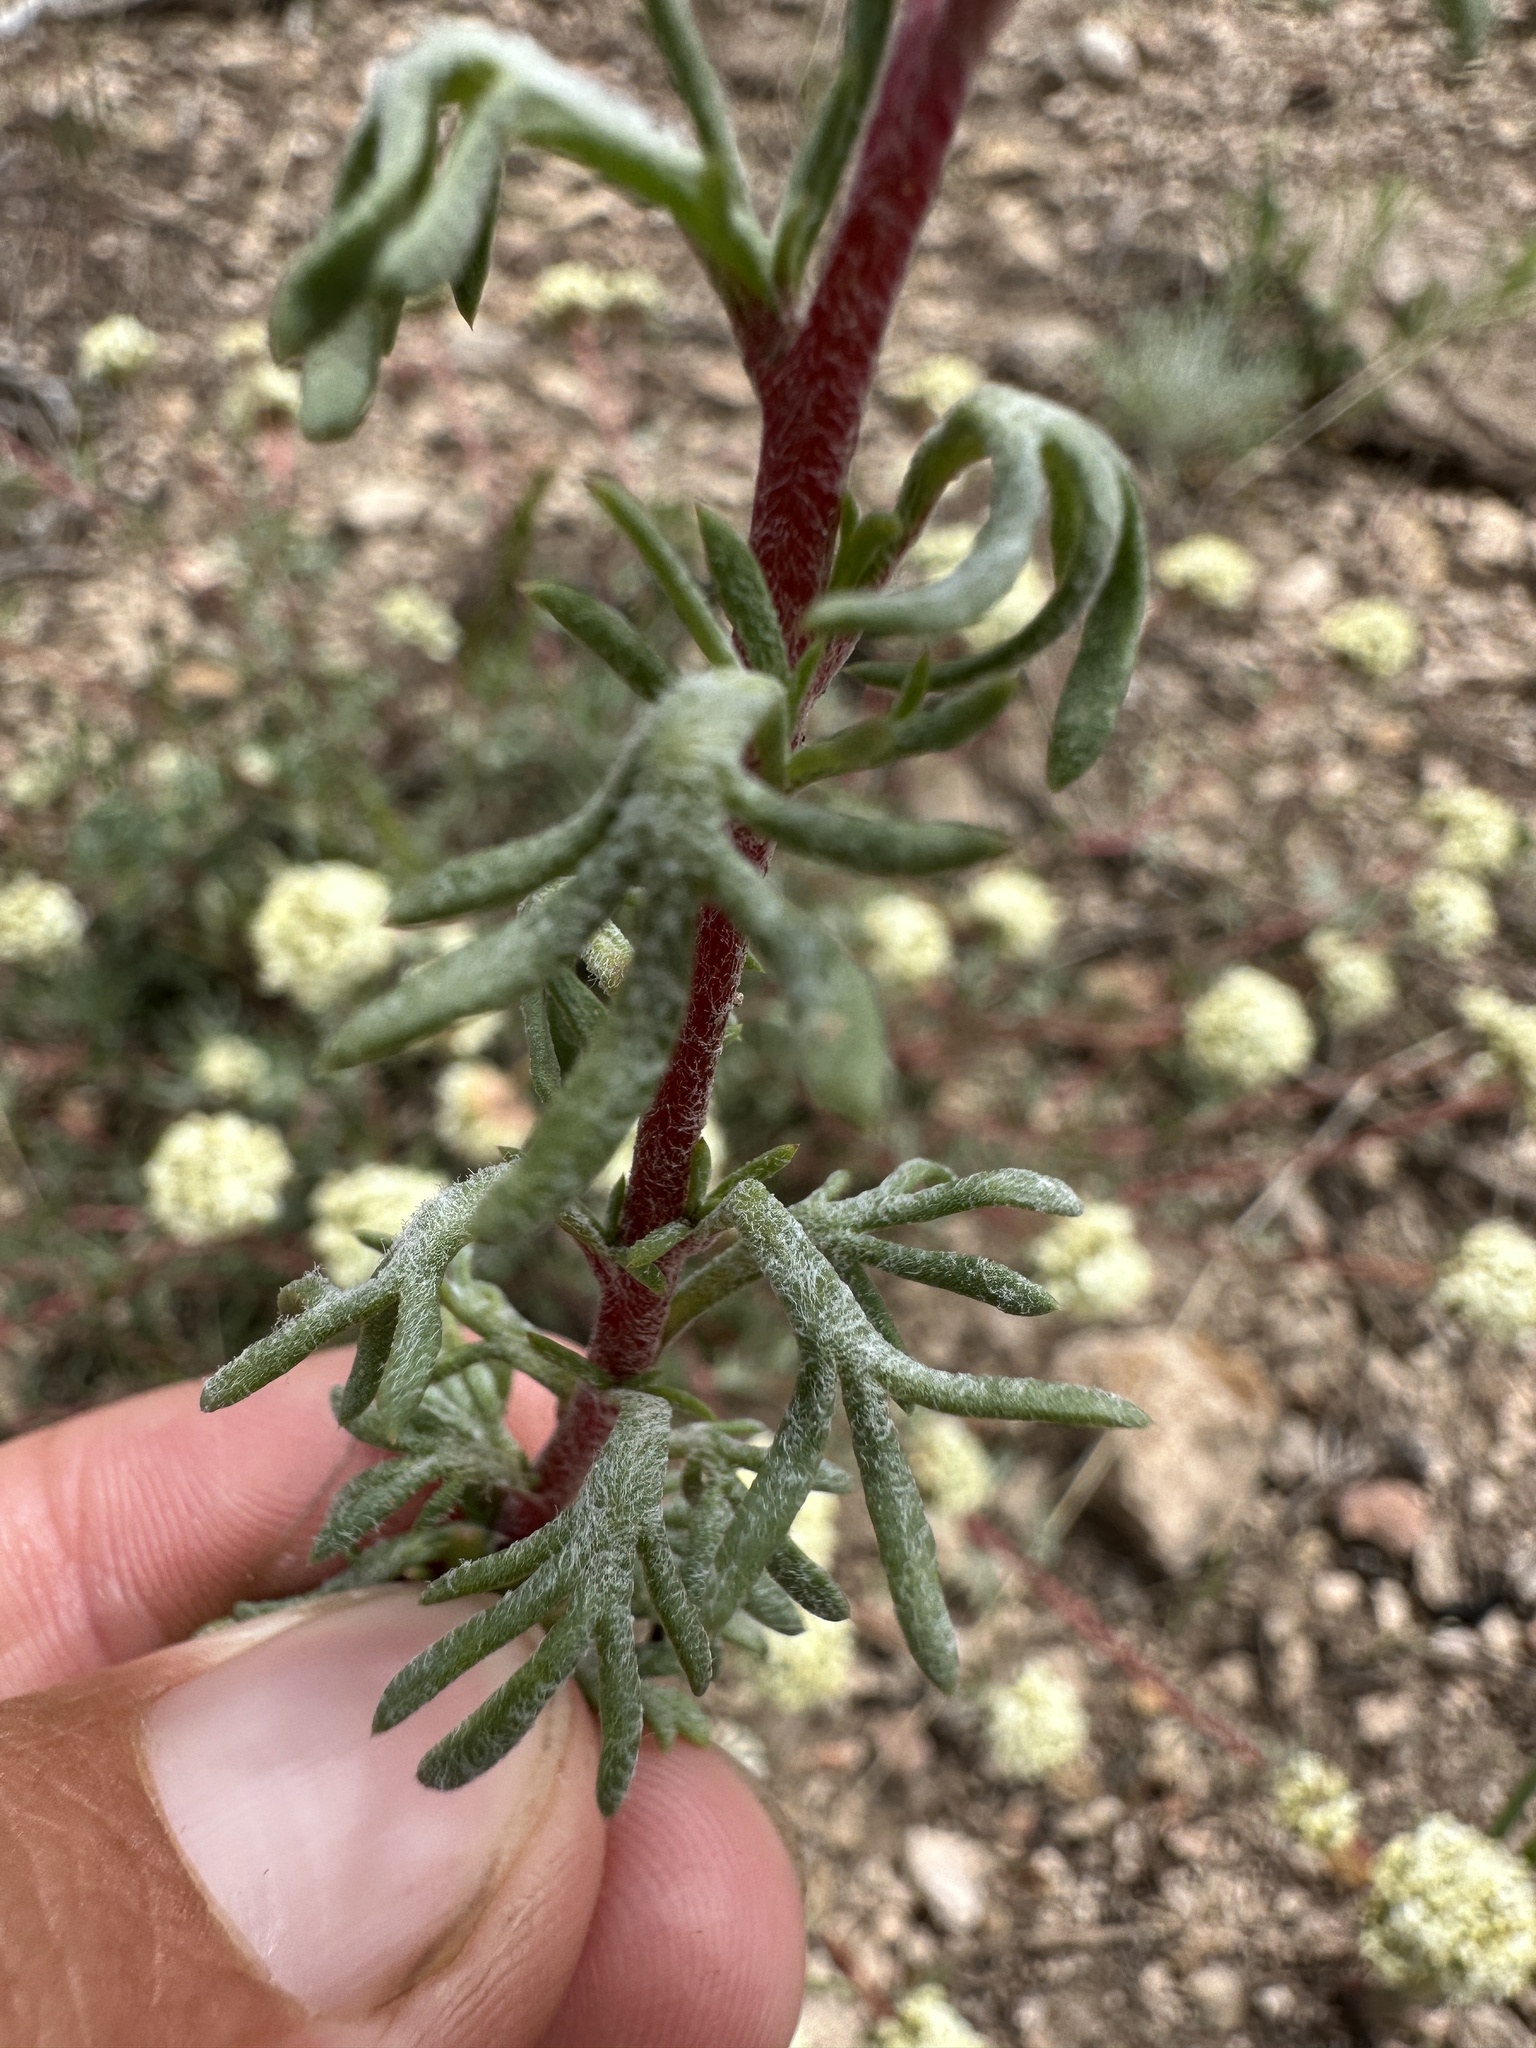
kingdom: Plantae
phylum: Tracheophyta
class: Magnoliopsida
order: Ericales
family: Polemoniaceae
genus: Ipomopsis
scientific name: Ipomopsis congesta
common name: Ball-head gilia
